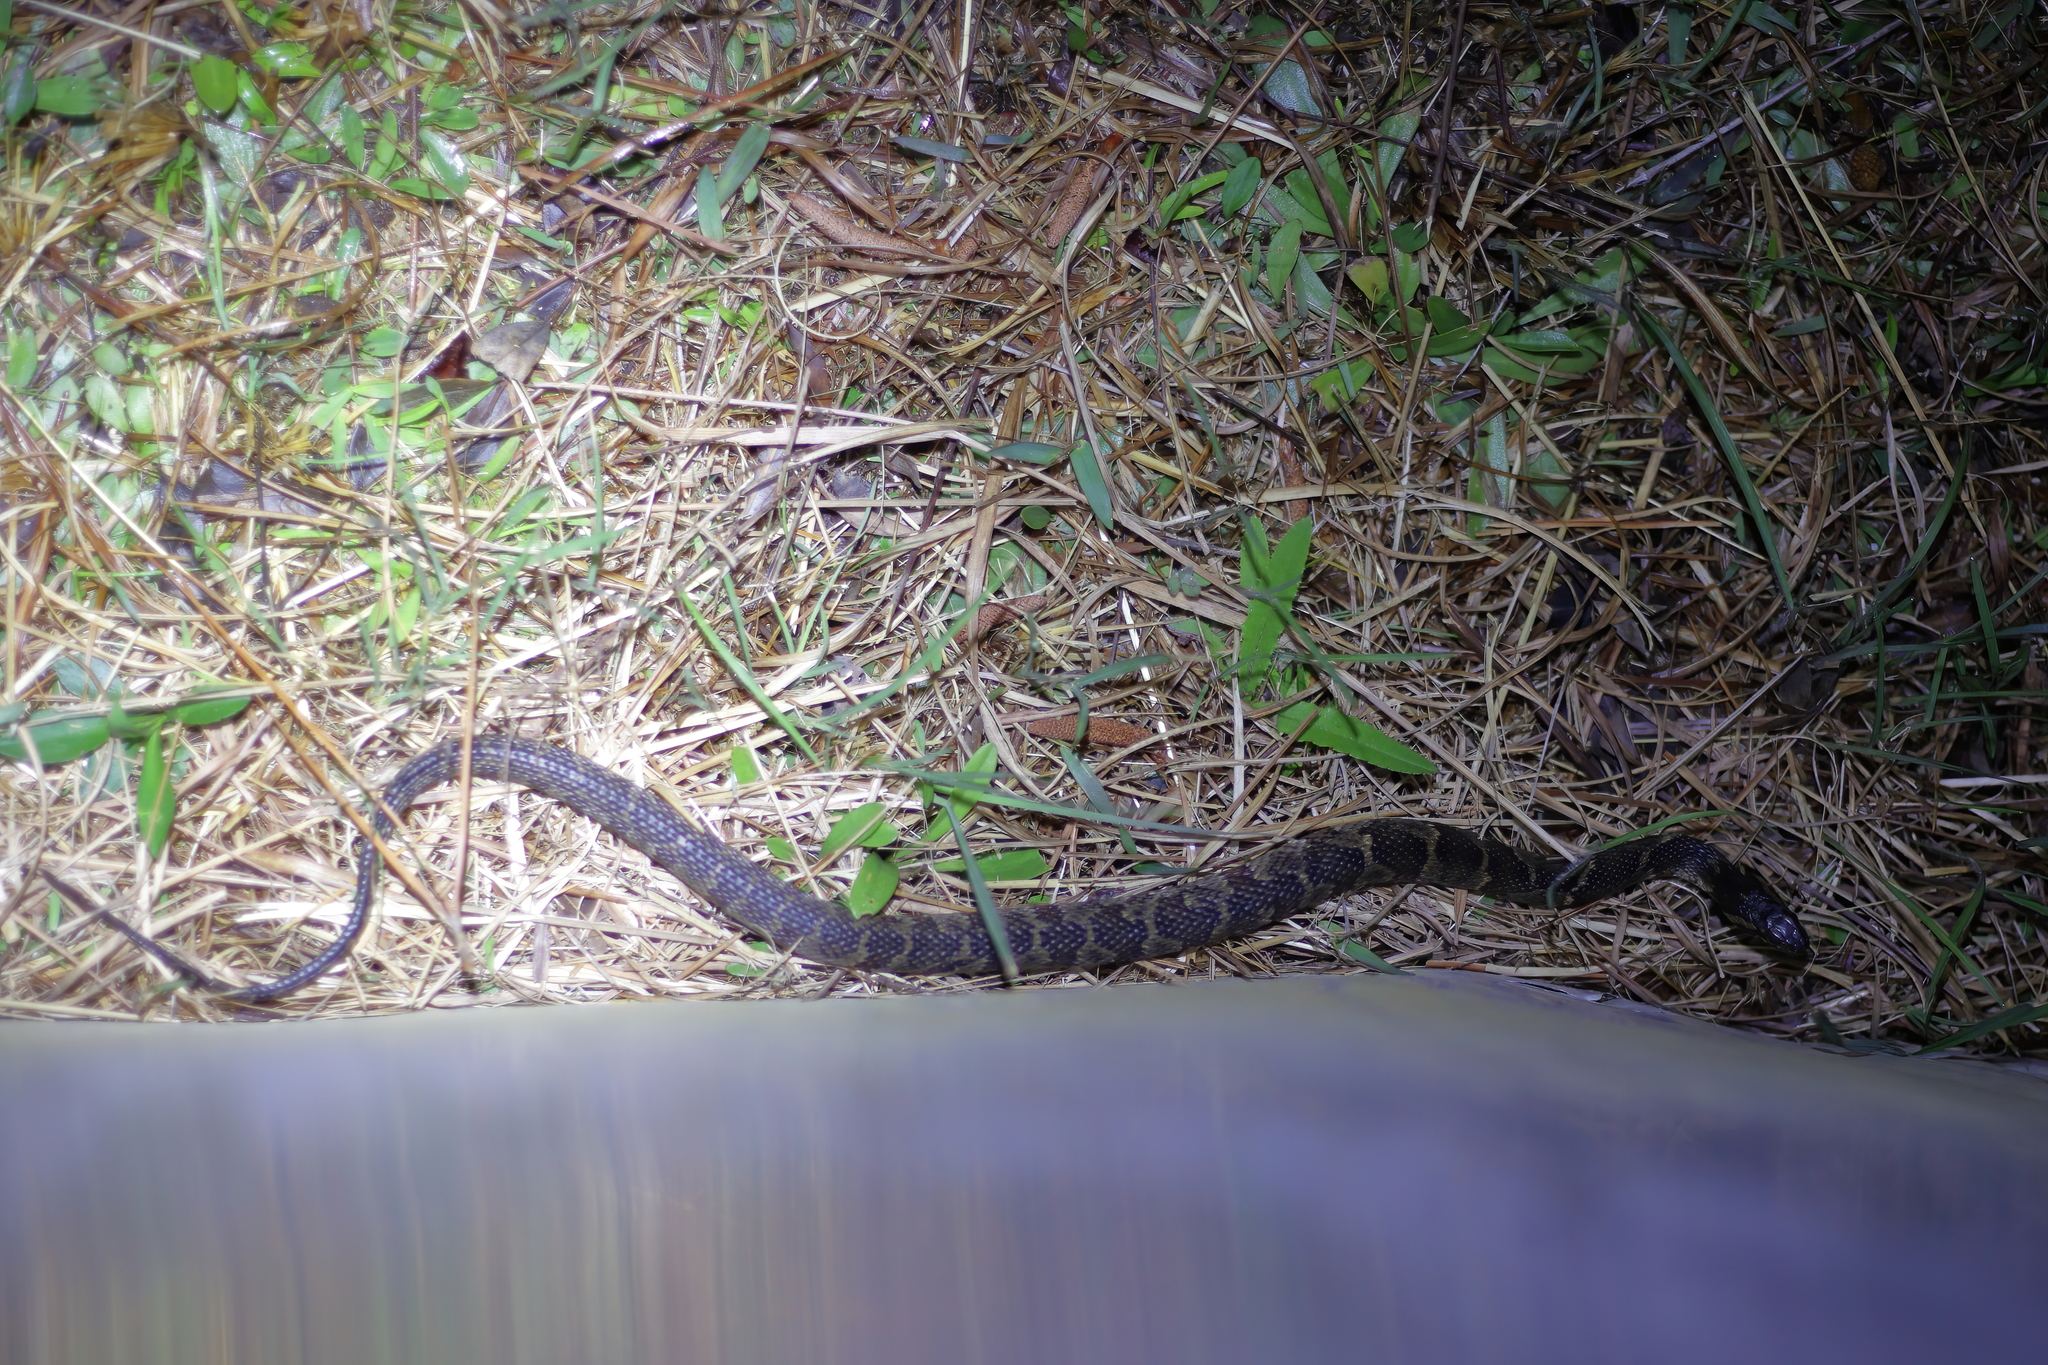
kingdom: Animalia
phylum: Chordata
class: Squamata
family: Colubridae
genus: Nerodia
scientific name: Nerodia fasciata
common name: Southern water snake
